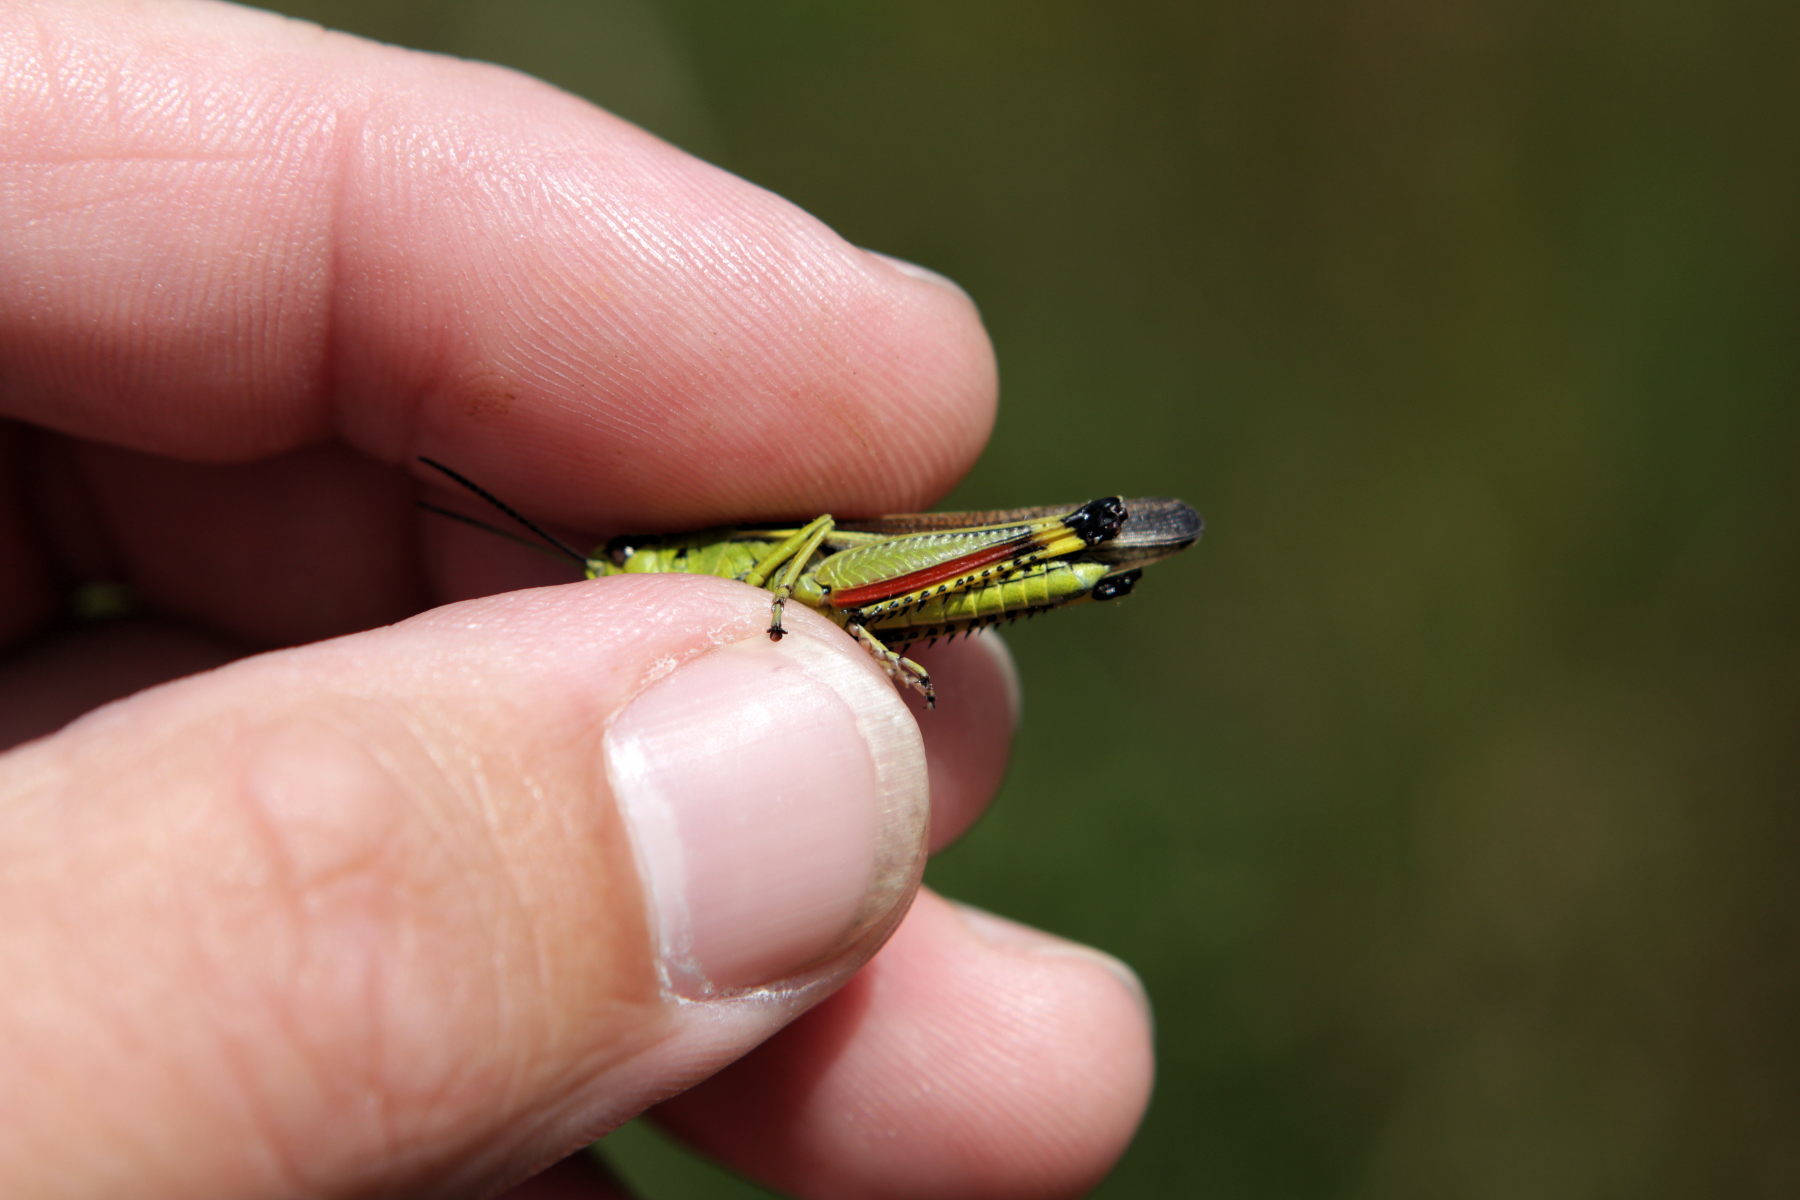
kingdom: Animalia
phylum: Arthropoda
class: Insecta
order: Orthoptera
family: Acrididae
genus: Stethophyma
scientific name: Stethophyma grossum
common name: Large marsh grasshopper
